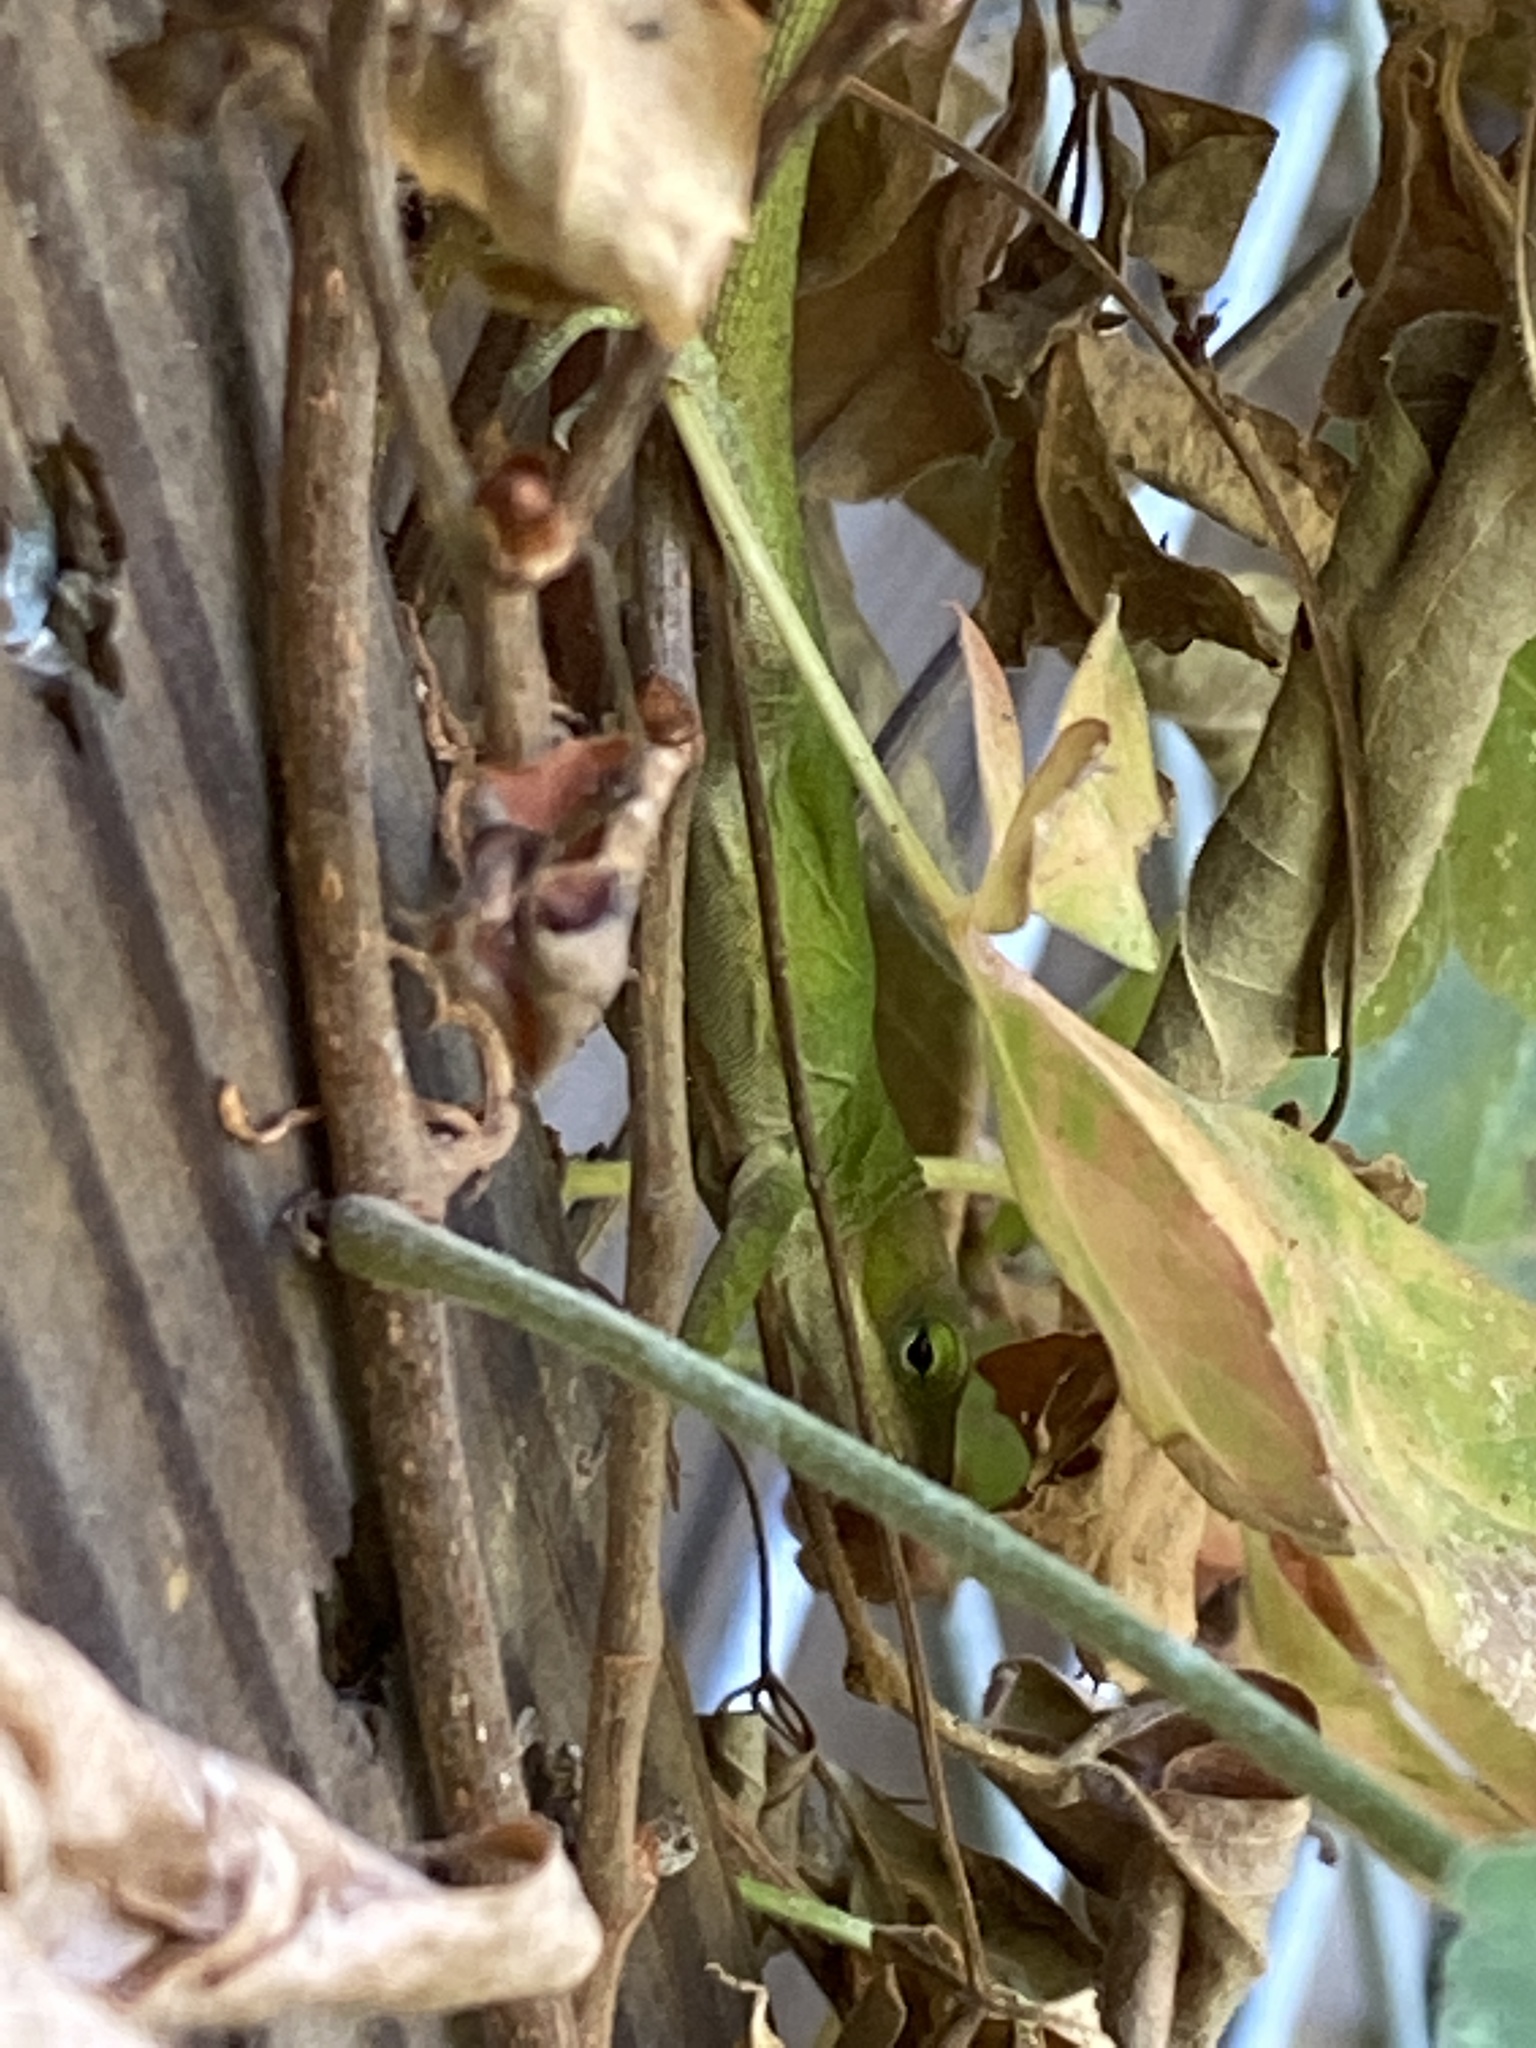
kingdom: Animalia
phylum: Chordata
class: Squamata
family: Dactyloidae
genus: Anolis
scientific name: Anolis carolinensis
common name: Green anole
